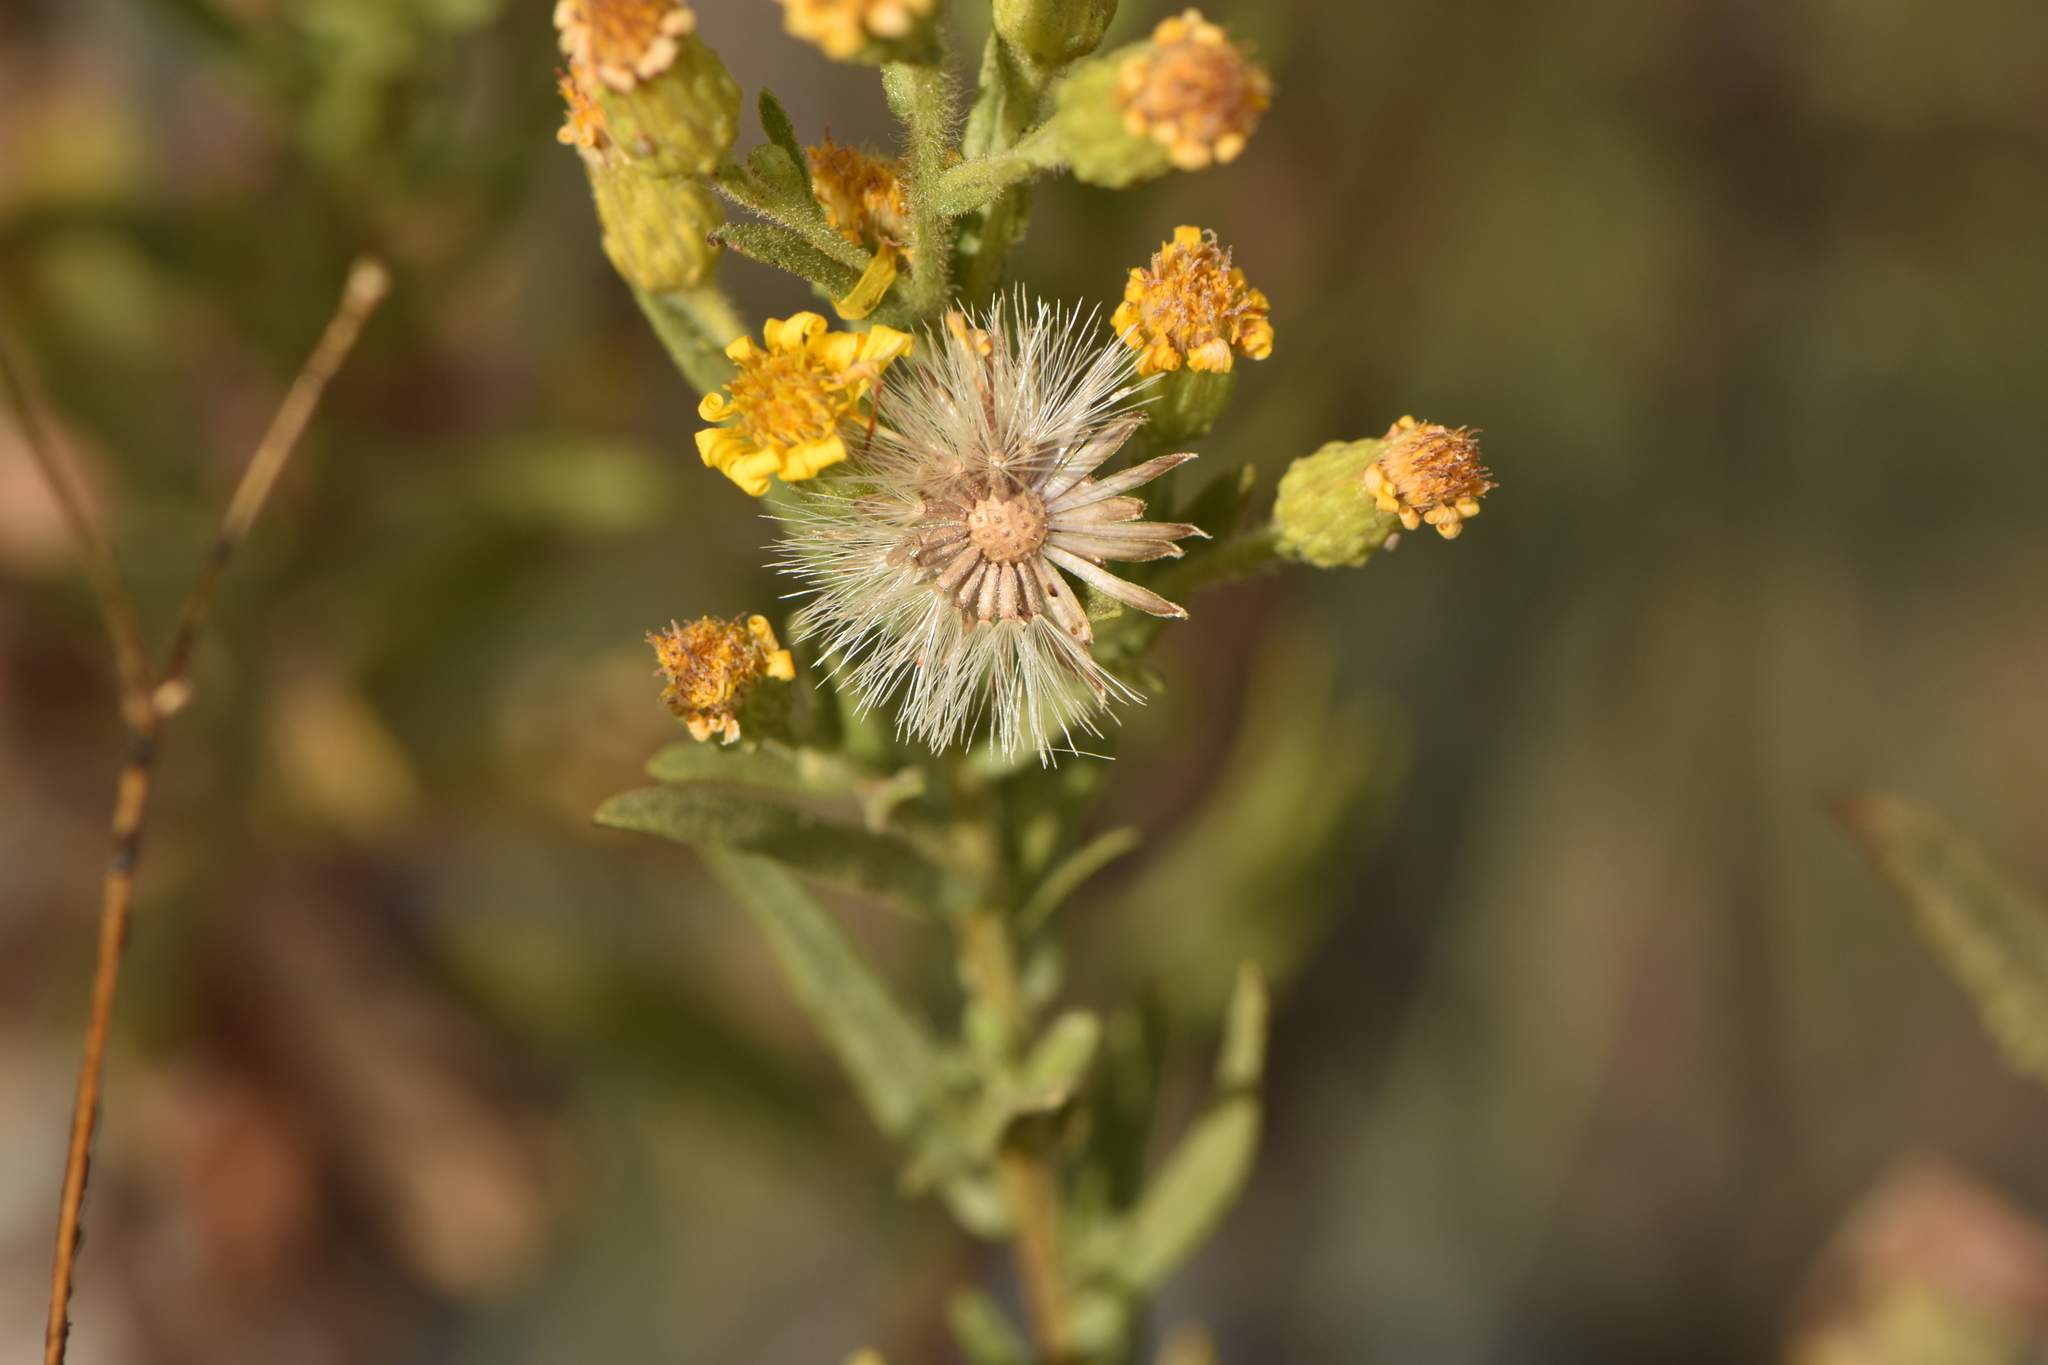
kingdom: Plantae
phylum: Tracheophyta
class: Magnoliopsida
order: Asterales
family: Asteraceae
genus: Dittrichia
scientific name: Dittrichia viscosa
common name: Woody fleabane
